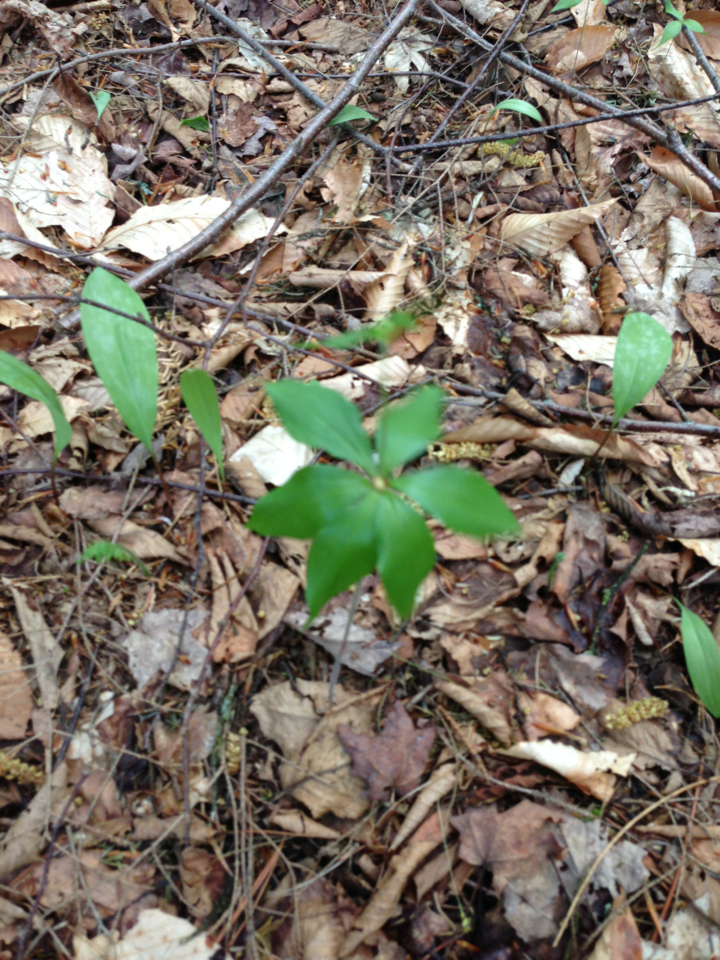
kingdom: Plantae
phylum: Tracheophyta
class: Liliopsida
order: Liliales
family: Liliaceae
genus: Medeola
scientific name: Medeola virginiana
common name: Indian cucumber-root
